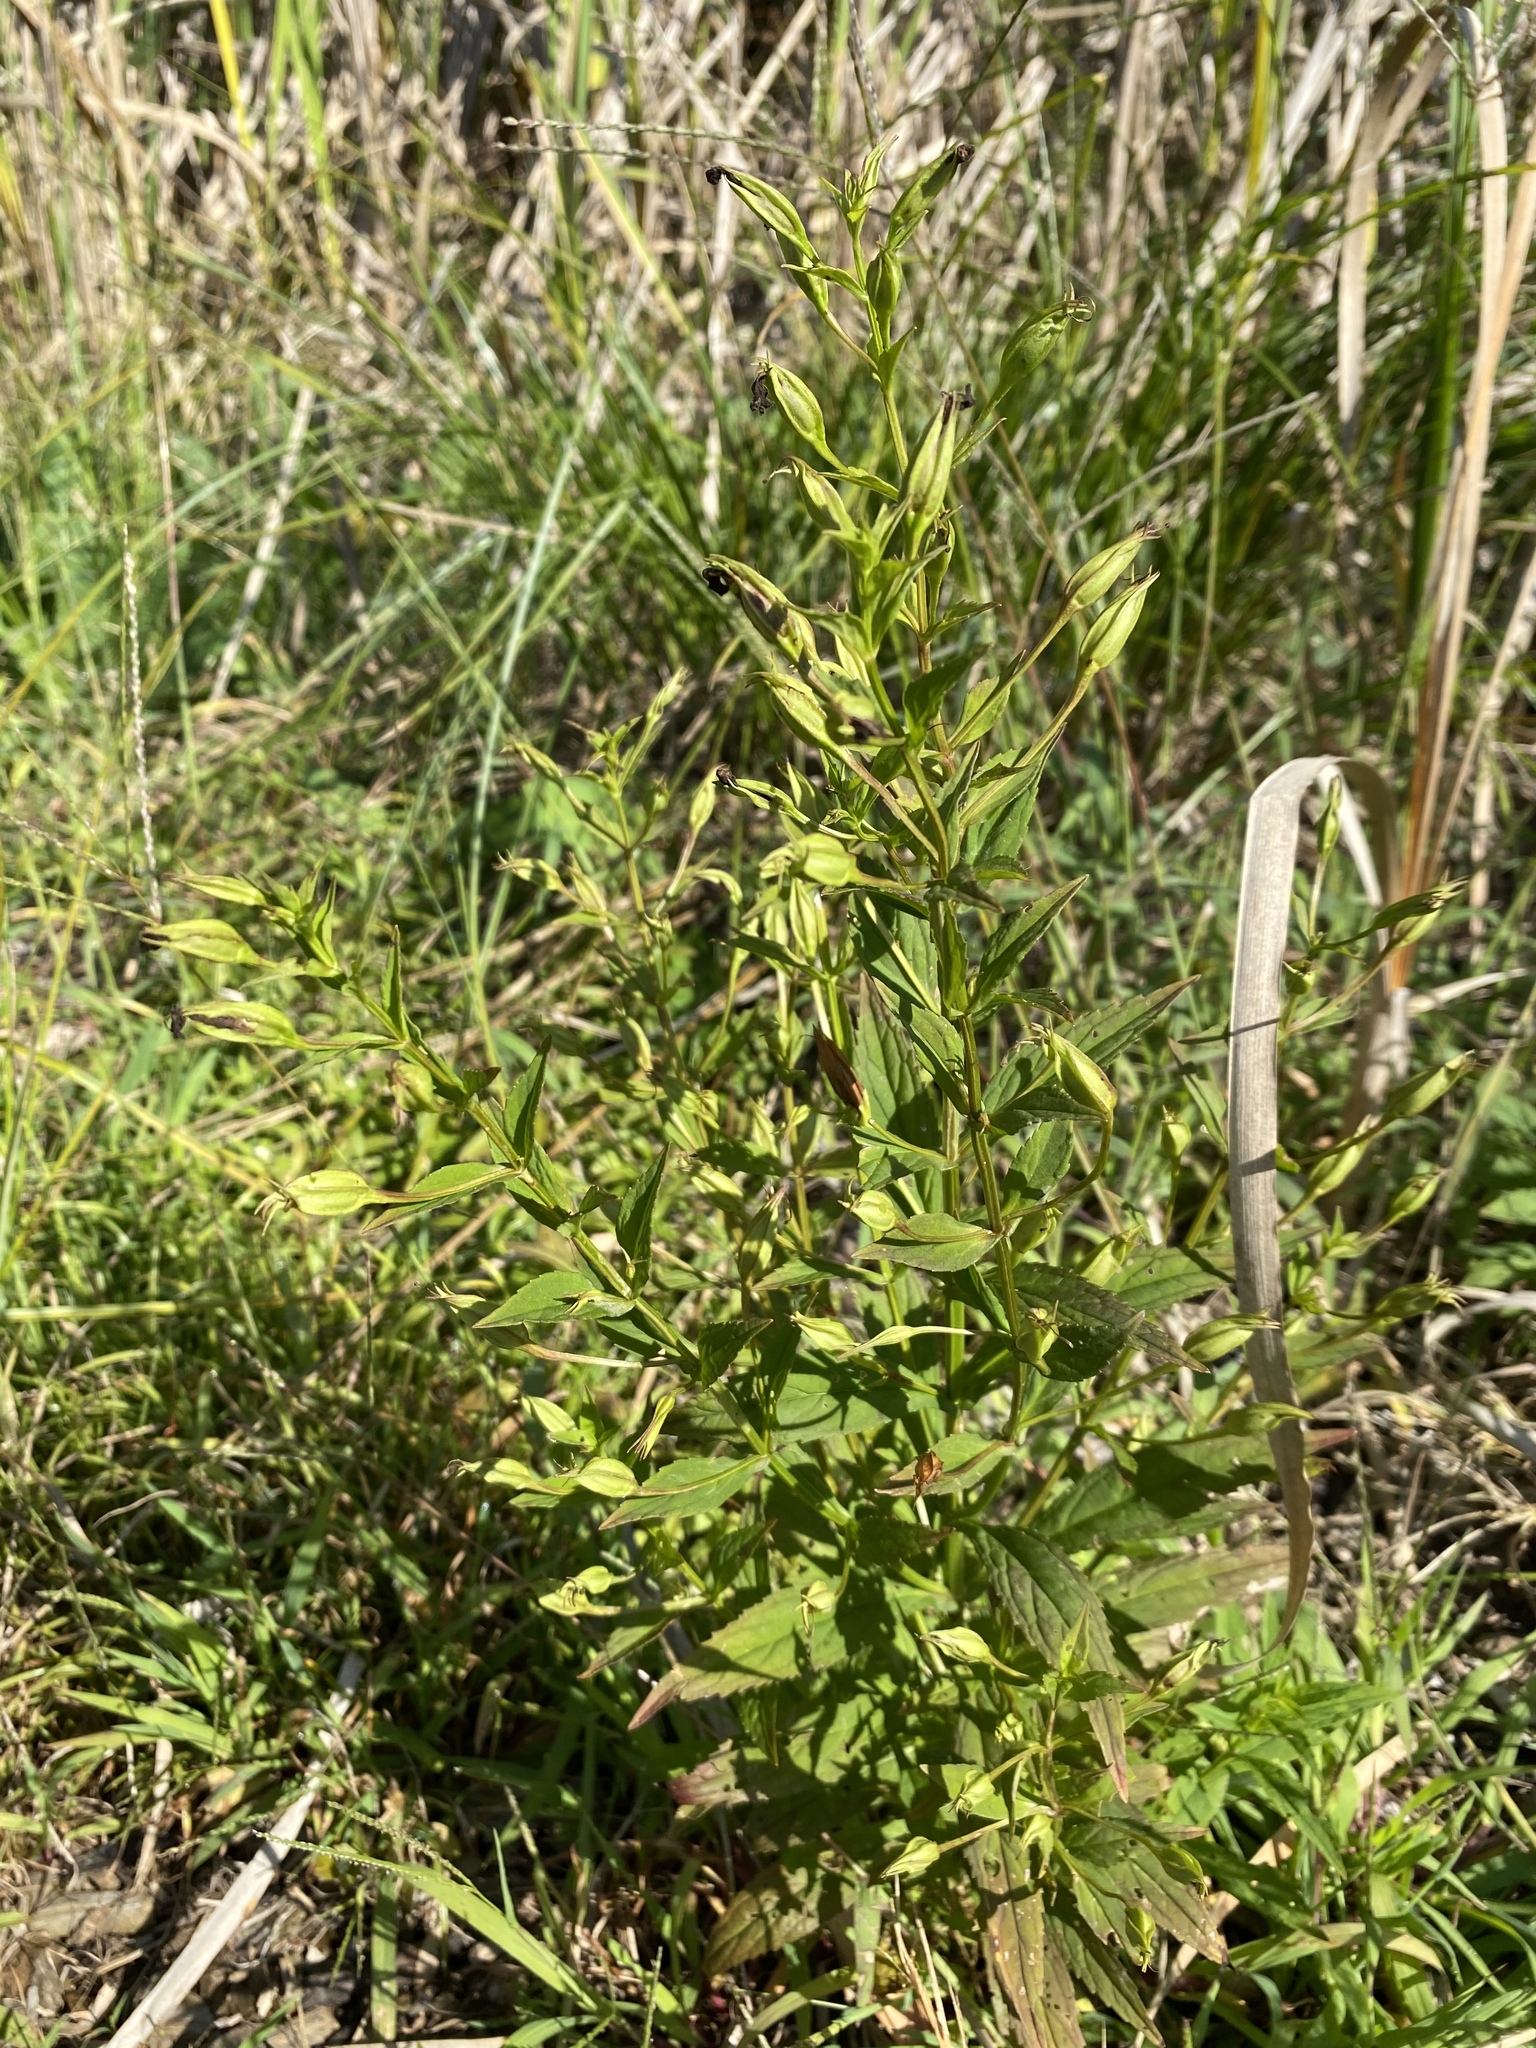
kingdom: Plantae
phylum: Tracheophyta
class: Magnoliopsida
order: Lamiales
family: Phrymaceae
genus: Mimulus
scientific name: Mimulus ringens
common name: Allegheny monkeyflower
